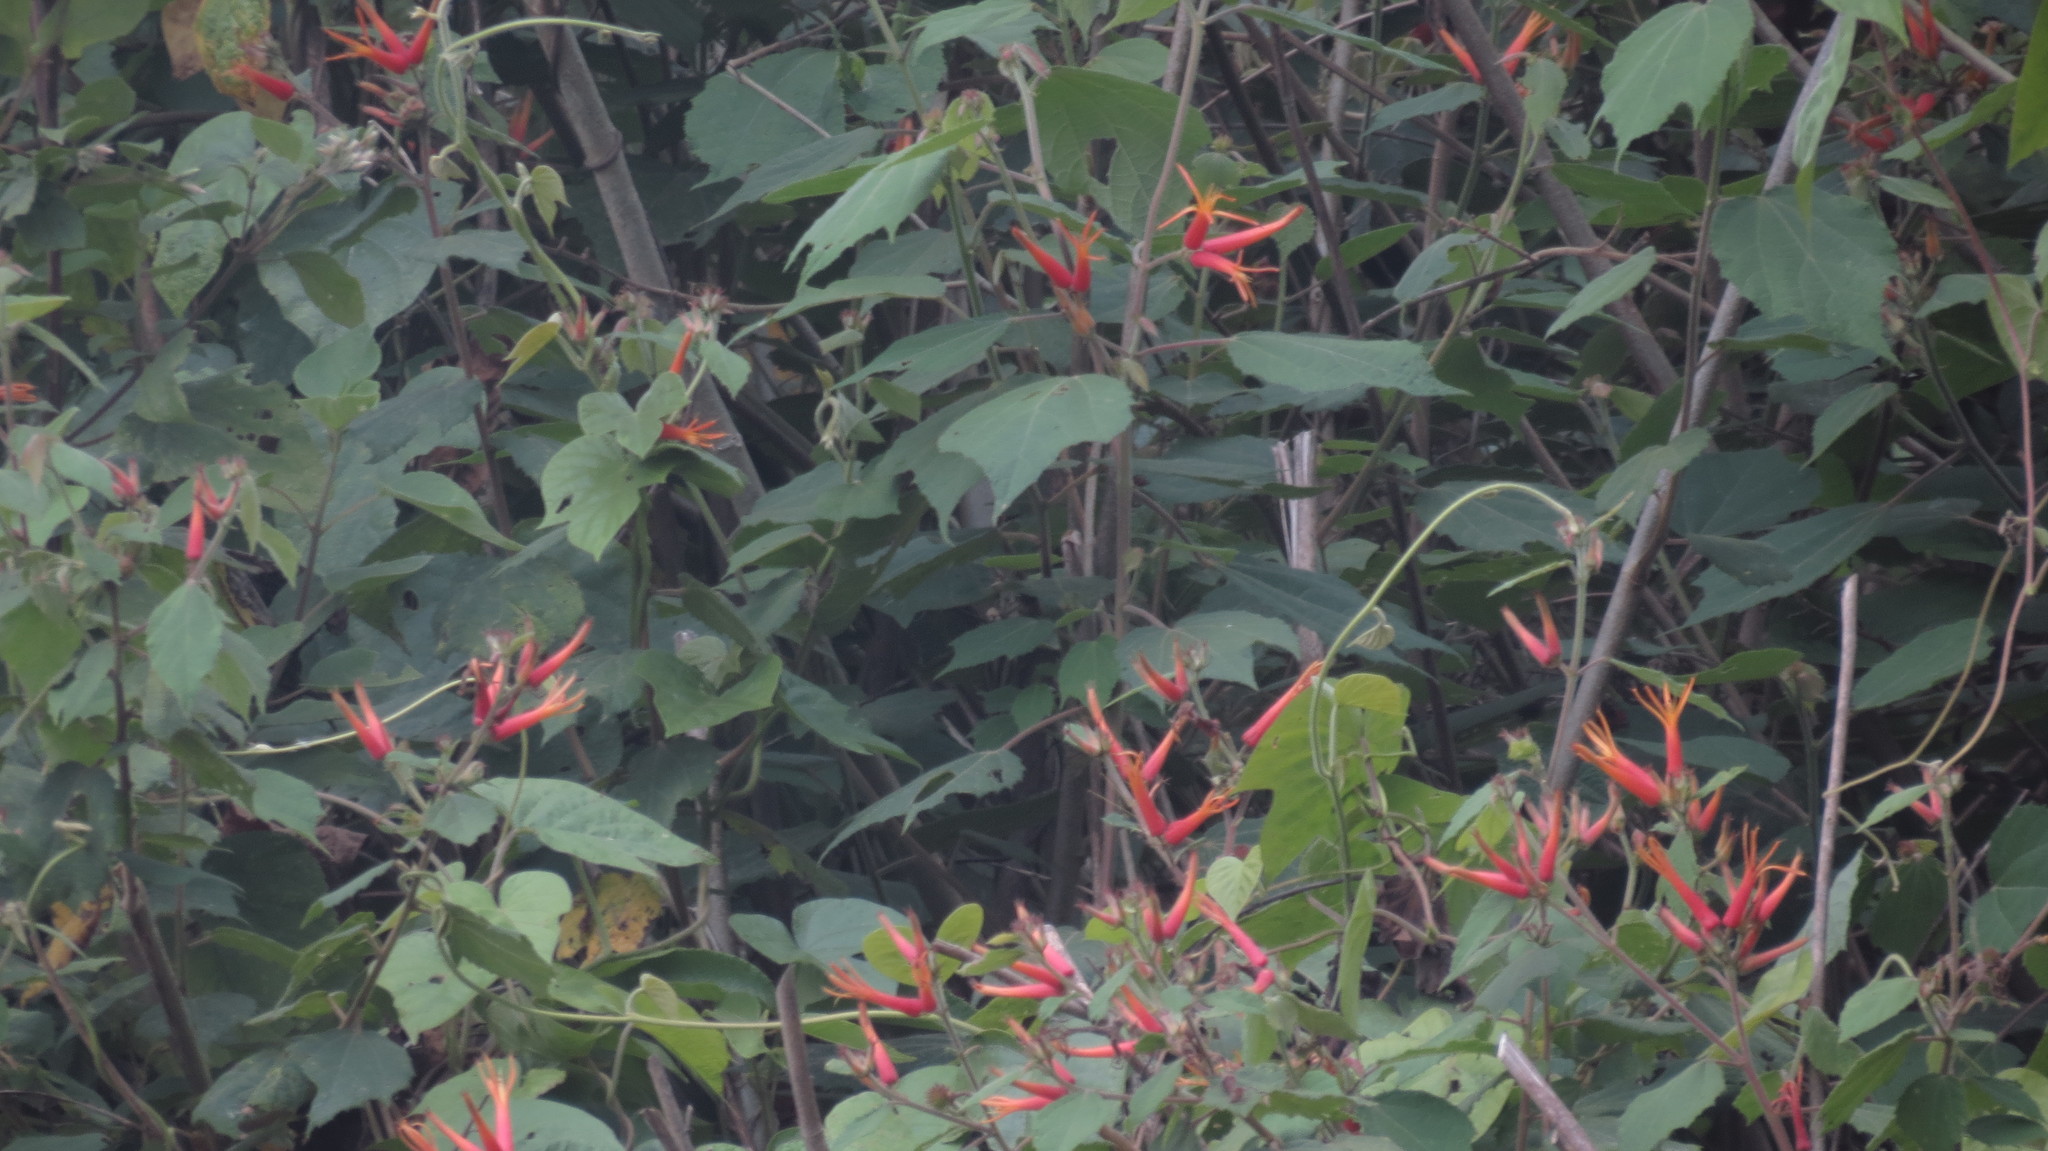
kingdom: Plantae
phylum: Tracheophyta
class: Magnoliopsida
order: Malvales
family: Malvaceae
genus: Triumfetta
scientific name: Triumfetta speciosa
